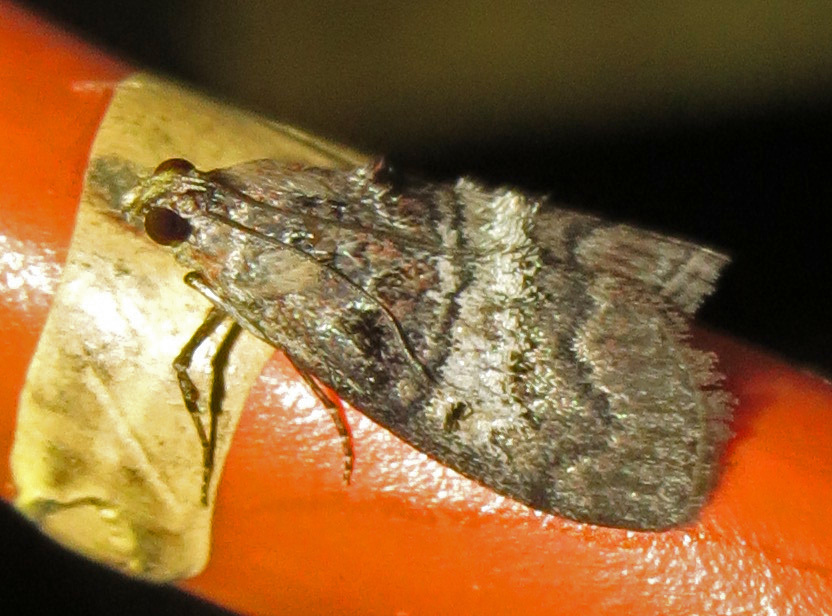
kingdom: Animalia
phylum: Arthropoda
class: Insecta
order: Lepidoptera
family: Pyralidae
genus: Pococera
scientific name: Pococera asperatella
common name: Maple webworm moth
